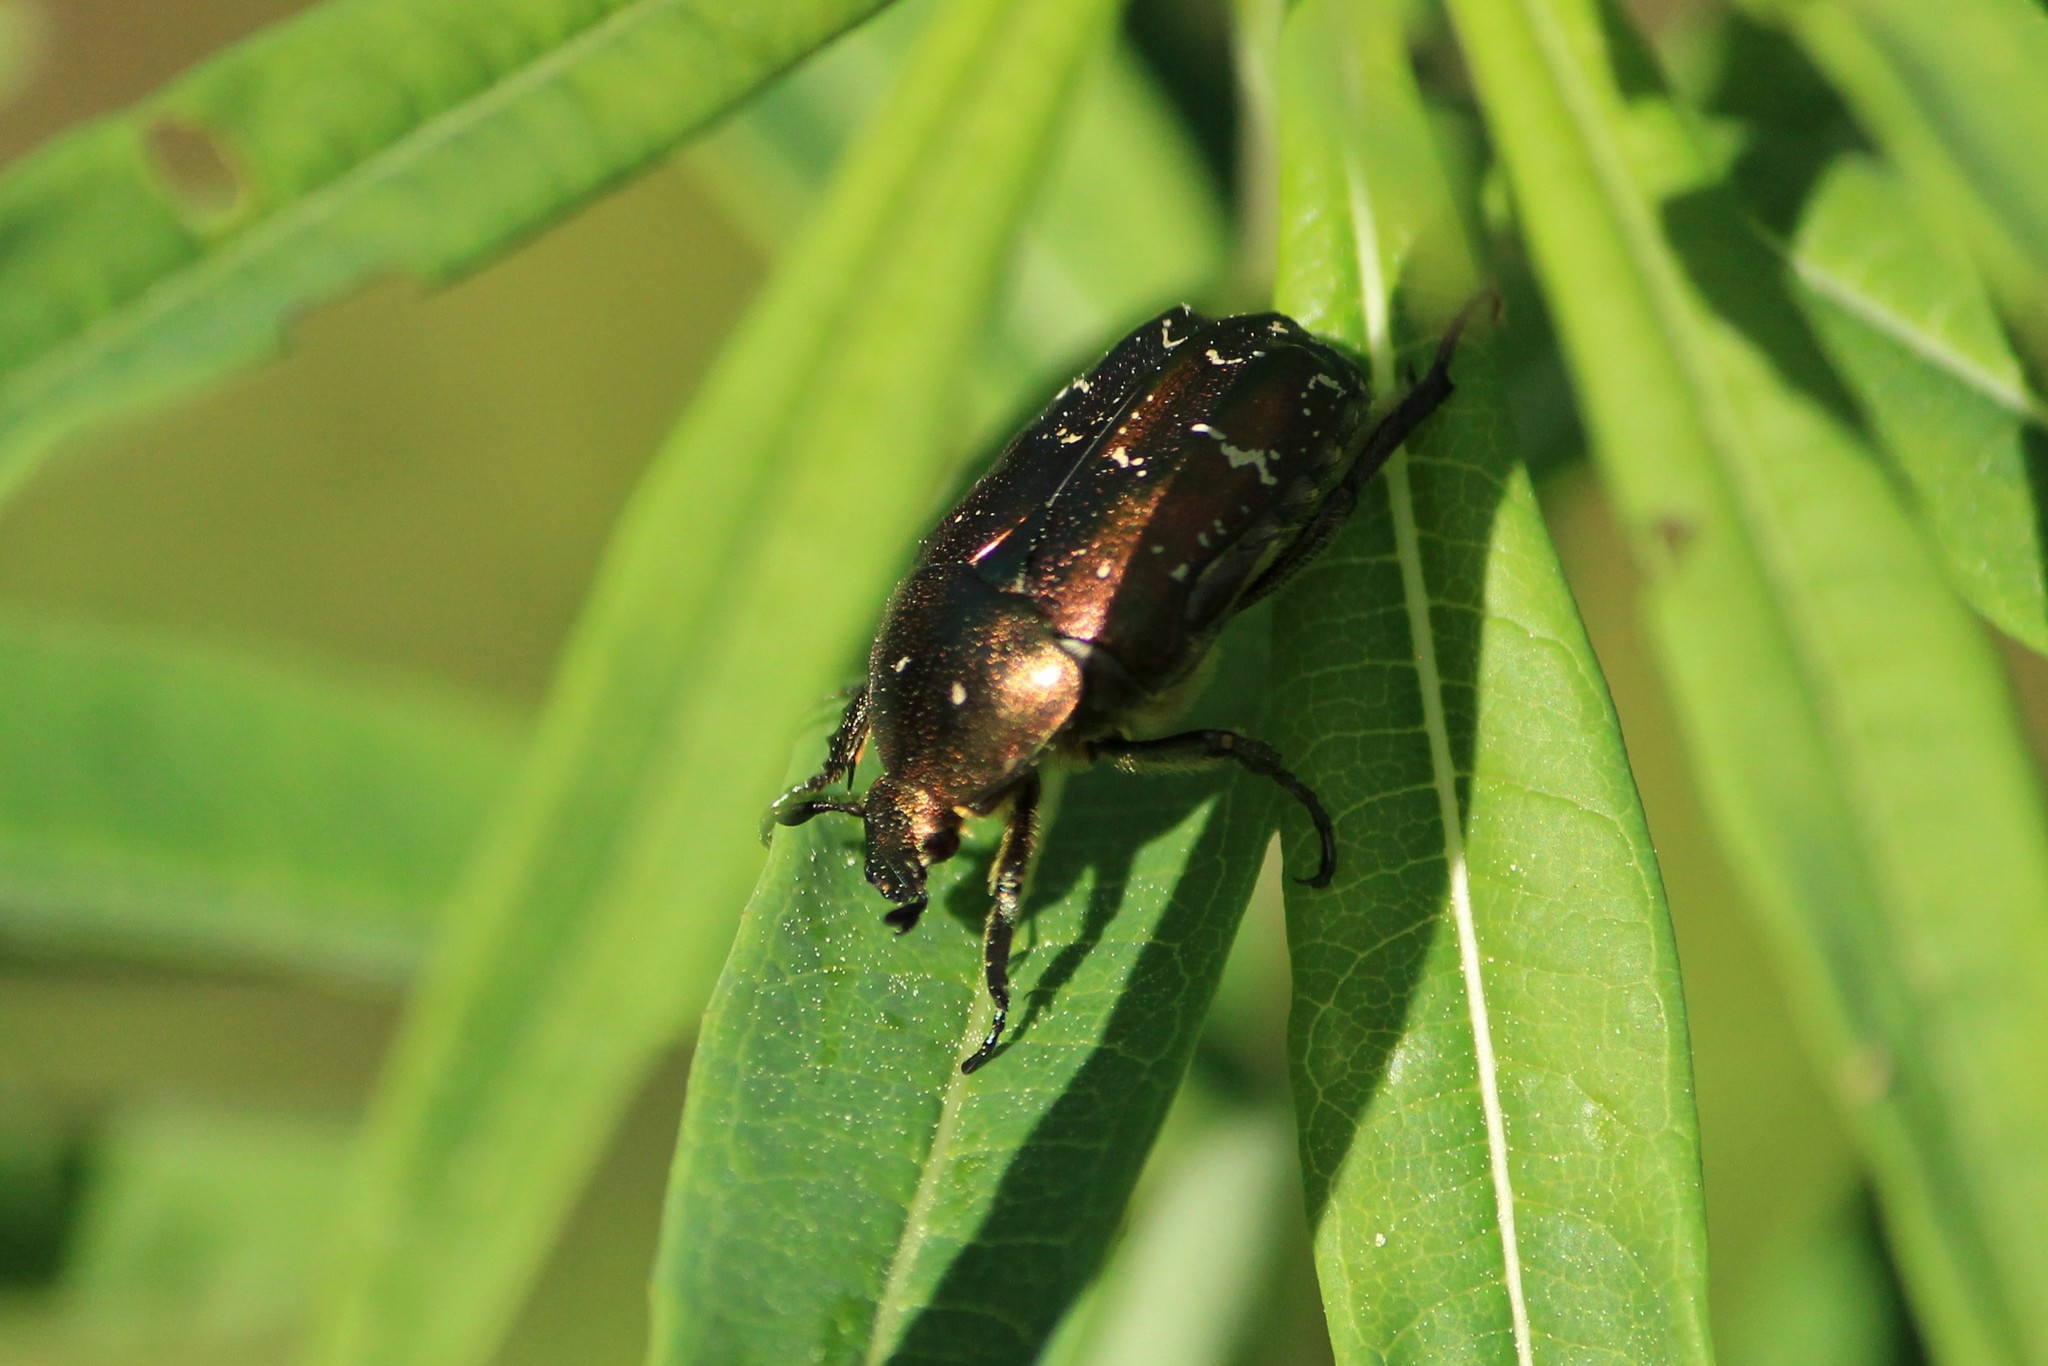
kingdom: Animalia
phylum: Arthropoda
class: Insecta
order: Coleoptera
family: Scarabaeidae
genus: Protaetia
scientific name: Protaetia cuprea
